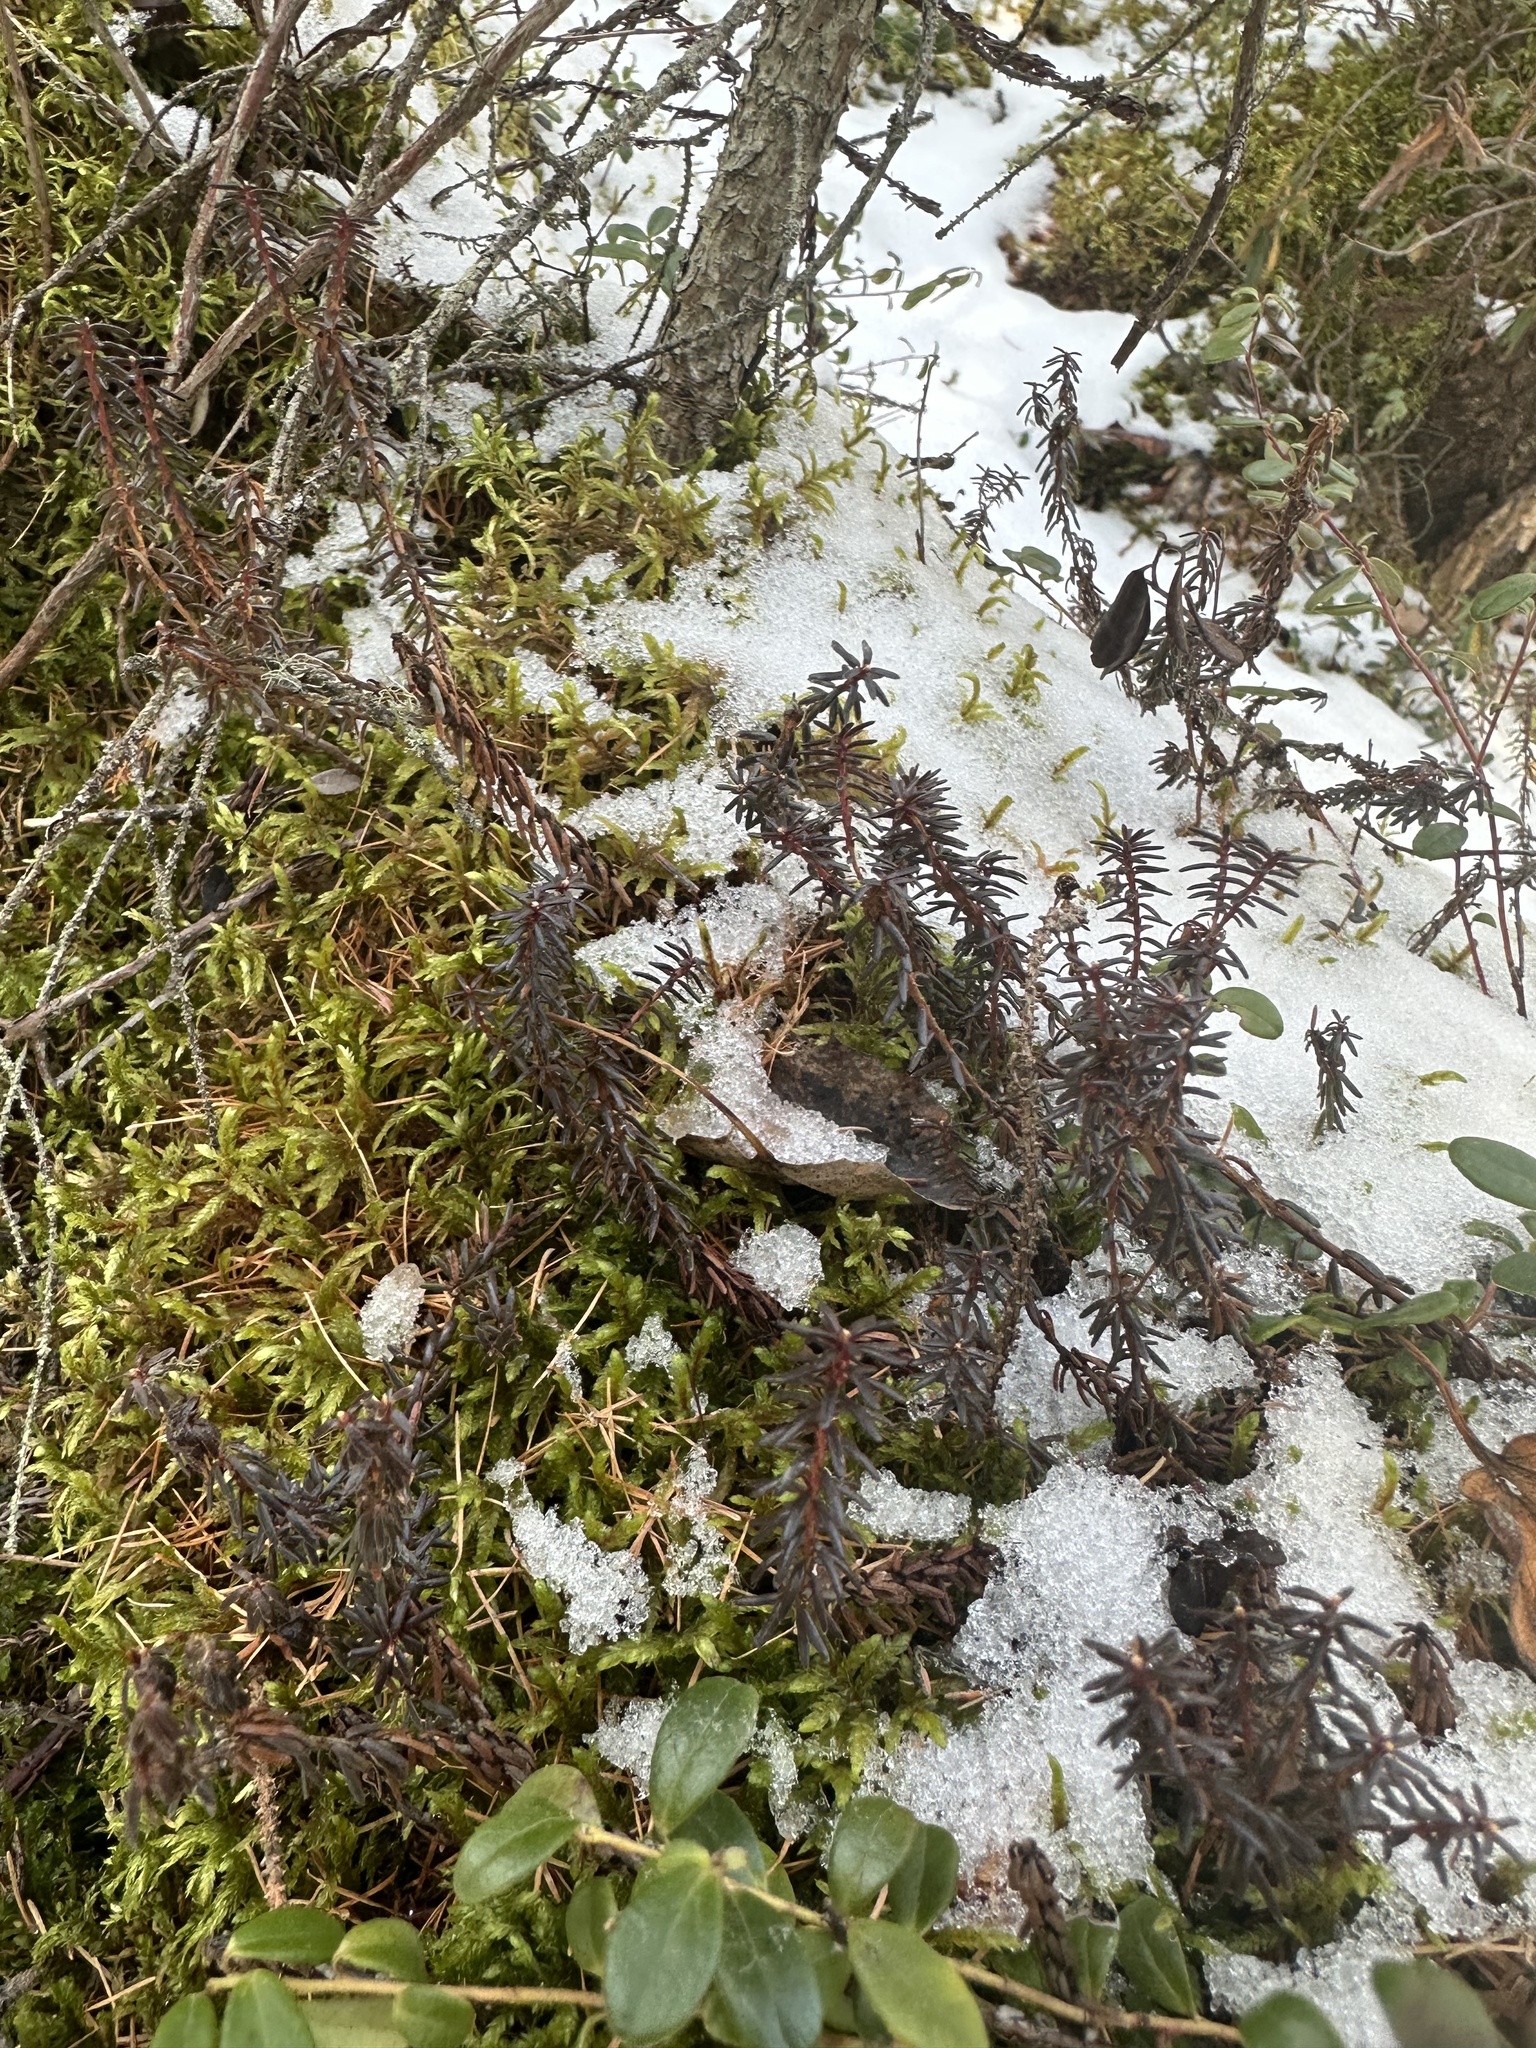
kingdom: Plantae
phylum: Tracheophyta
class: Magnoliopsida
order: Ericales
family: Ericaceae
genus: Empetrum
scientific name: Empetrum nigrum
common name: Black crowberry
